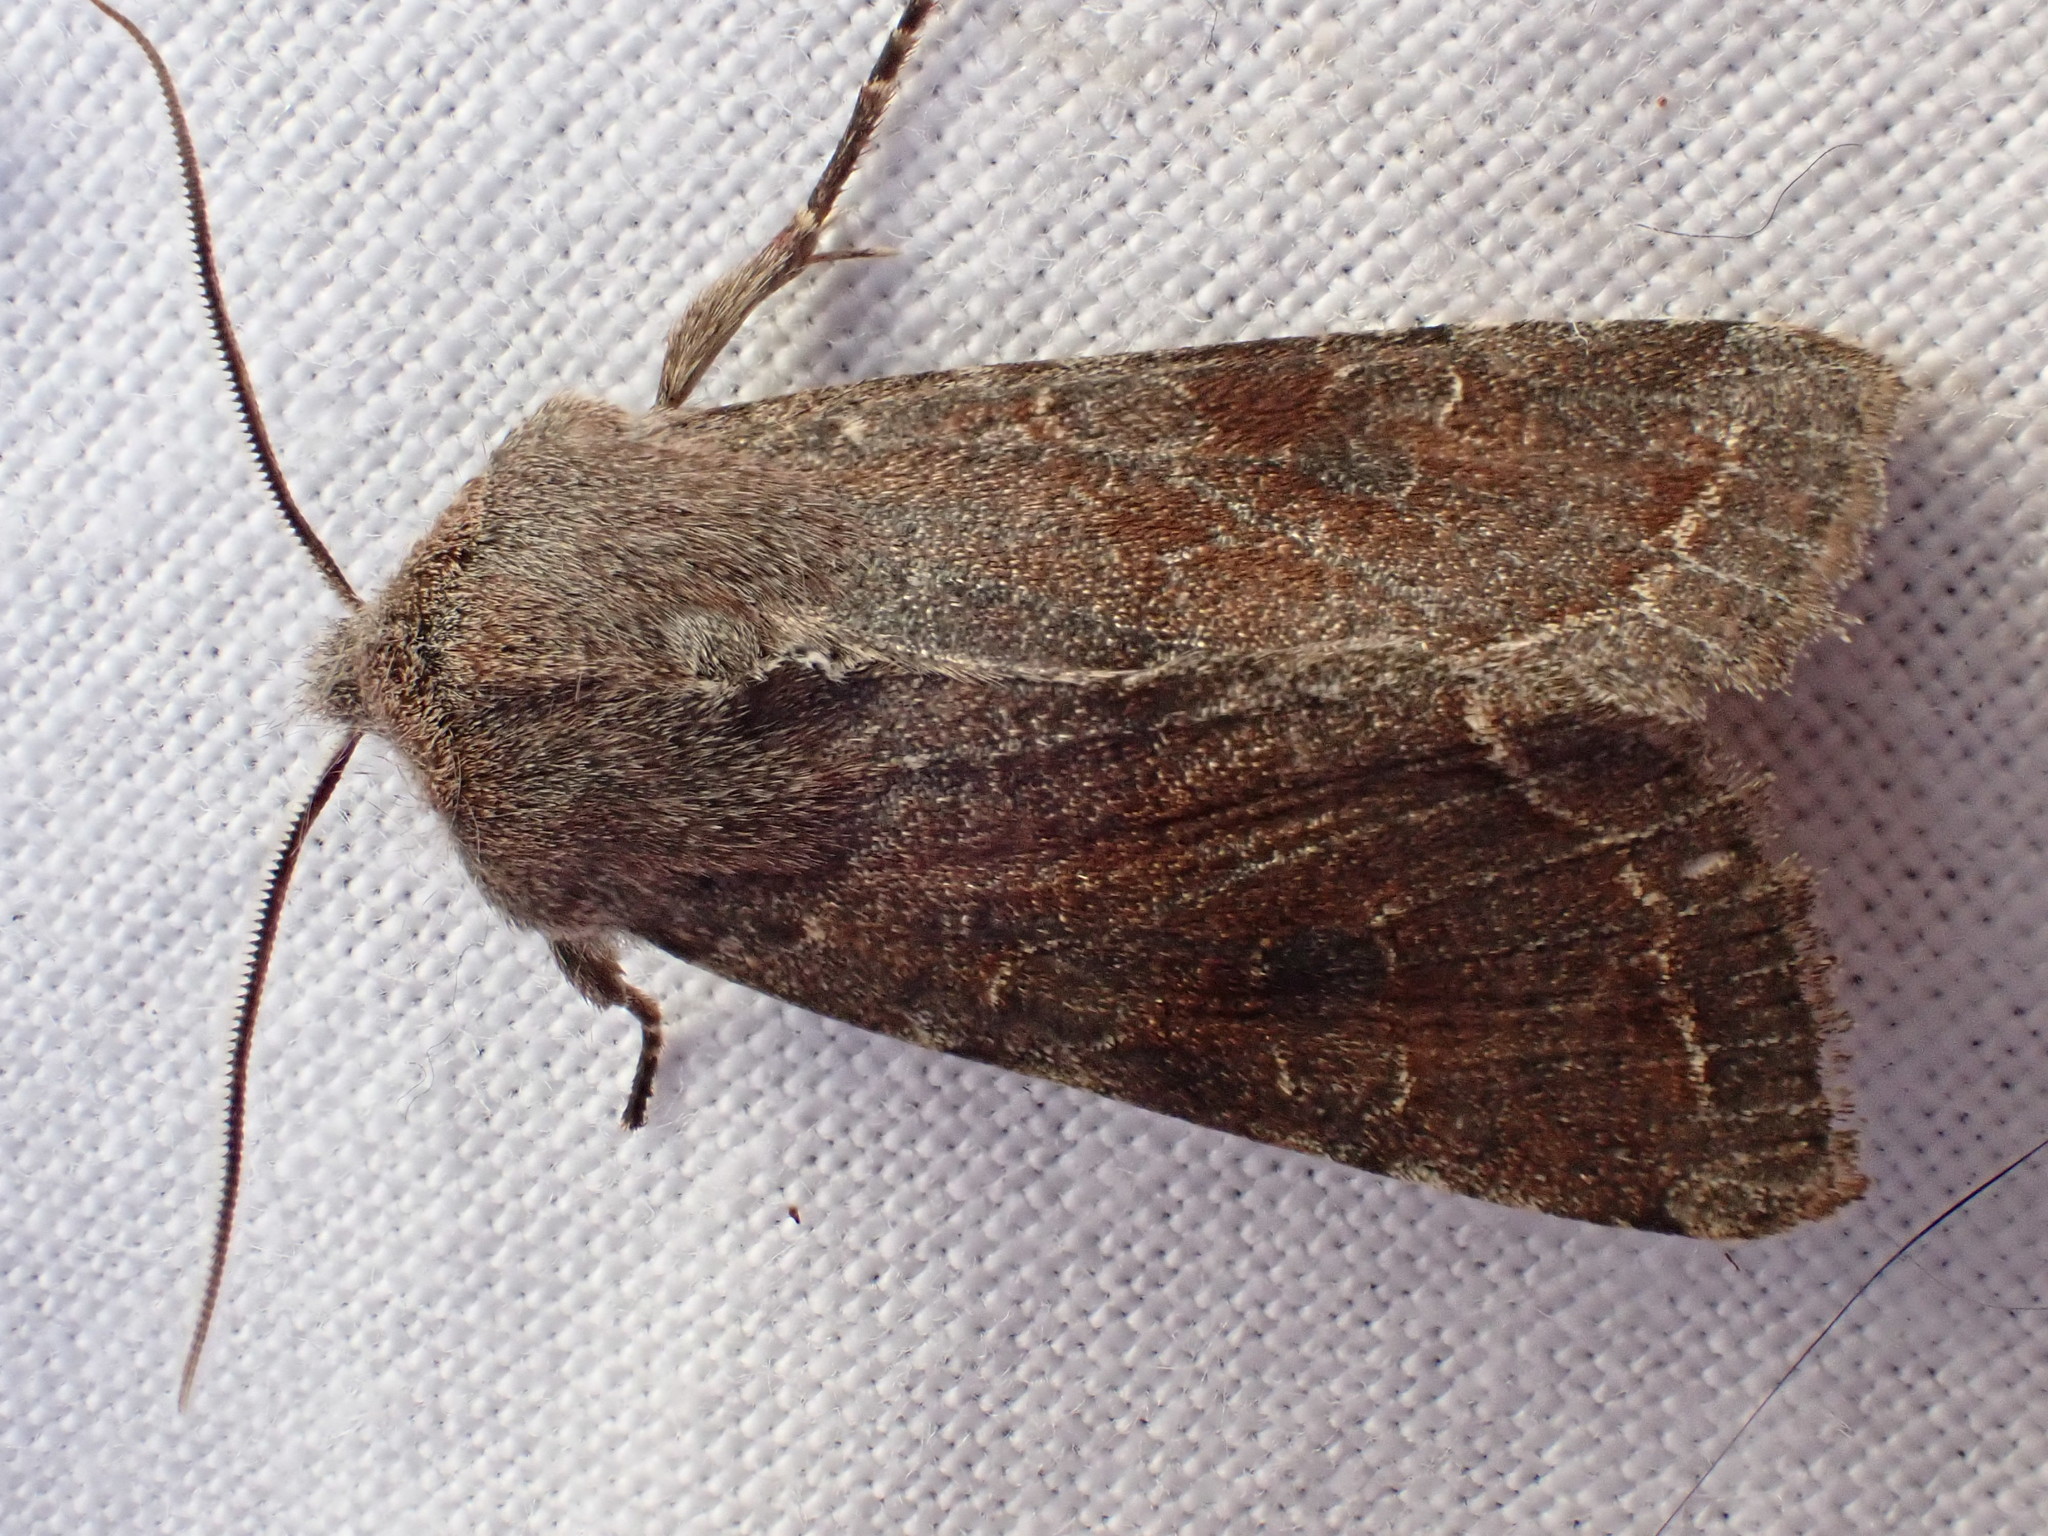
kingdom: Animalia
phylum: Arthropoda
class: Insecta
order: Lepidoptera
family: Noctuidae
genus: Orthosia
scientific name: Orthosia incerta
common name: Clouded drab
